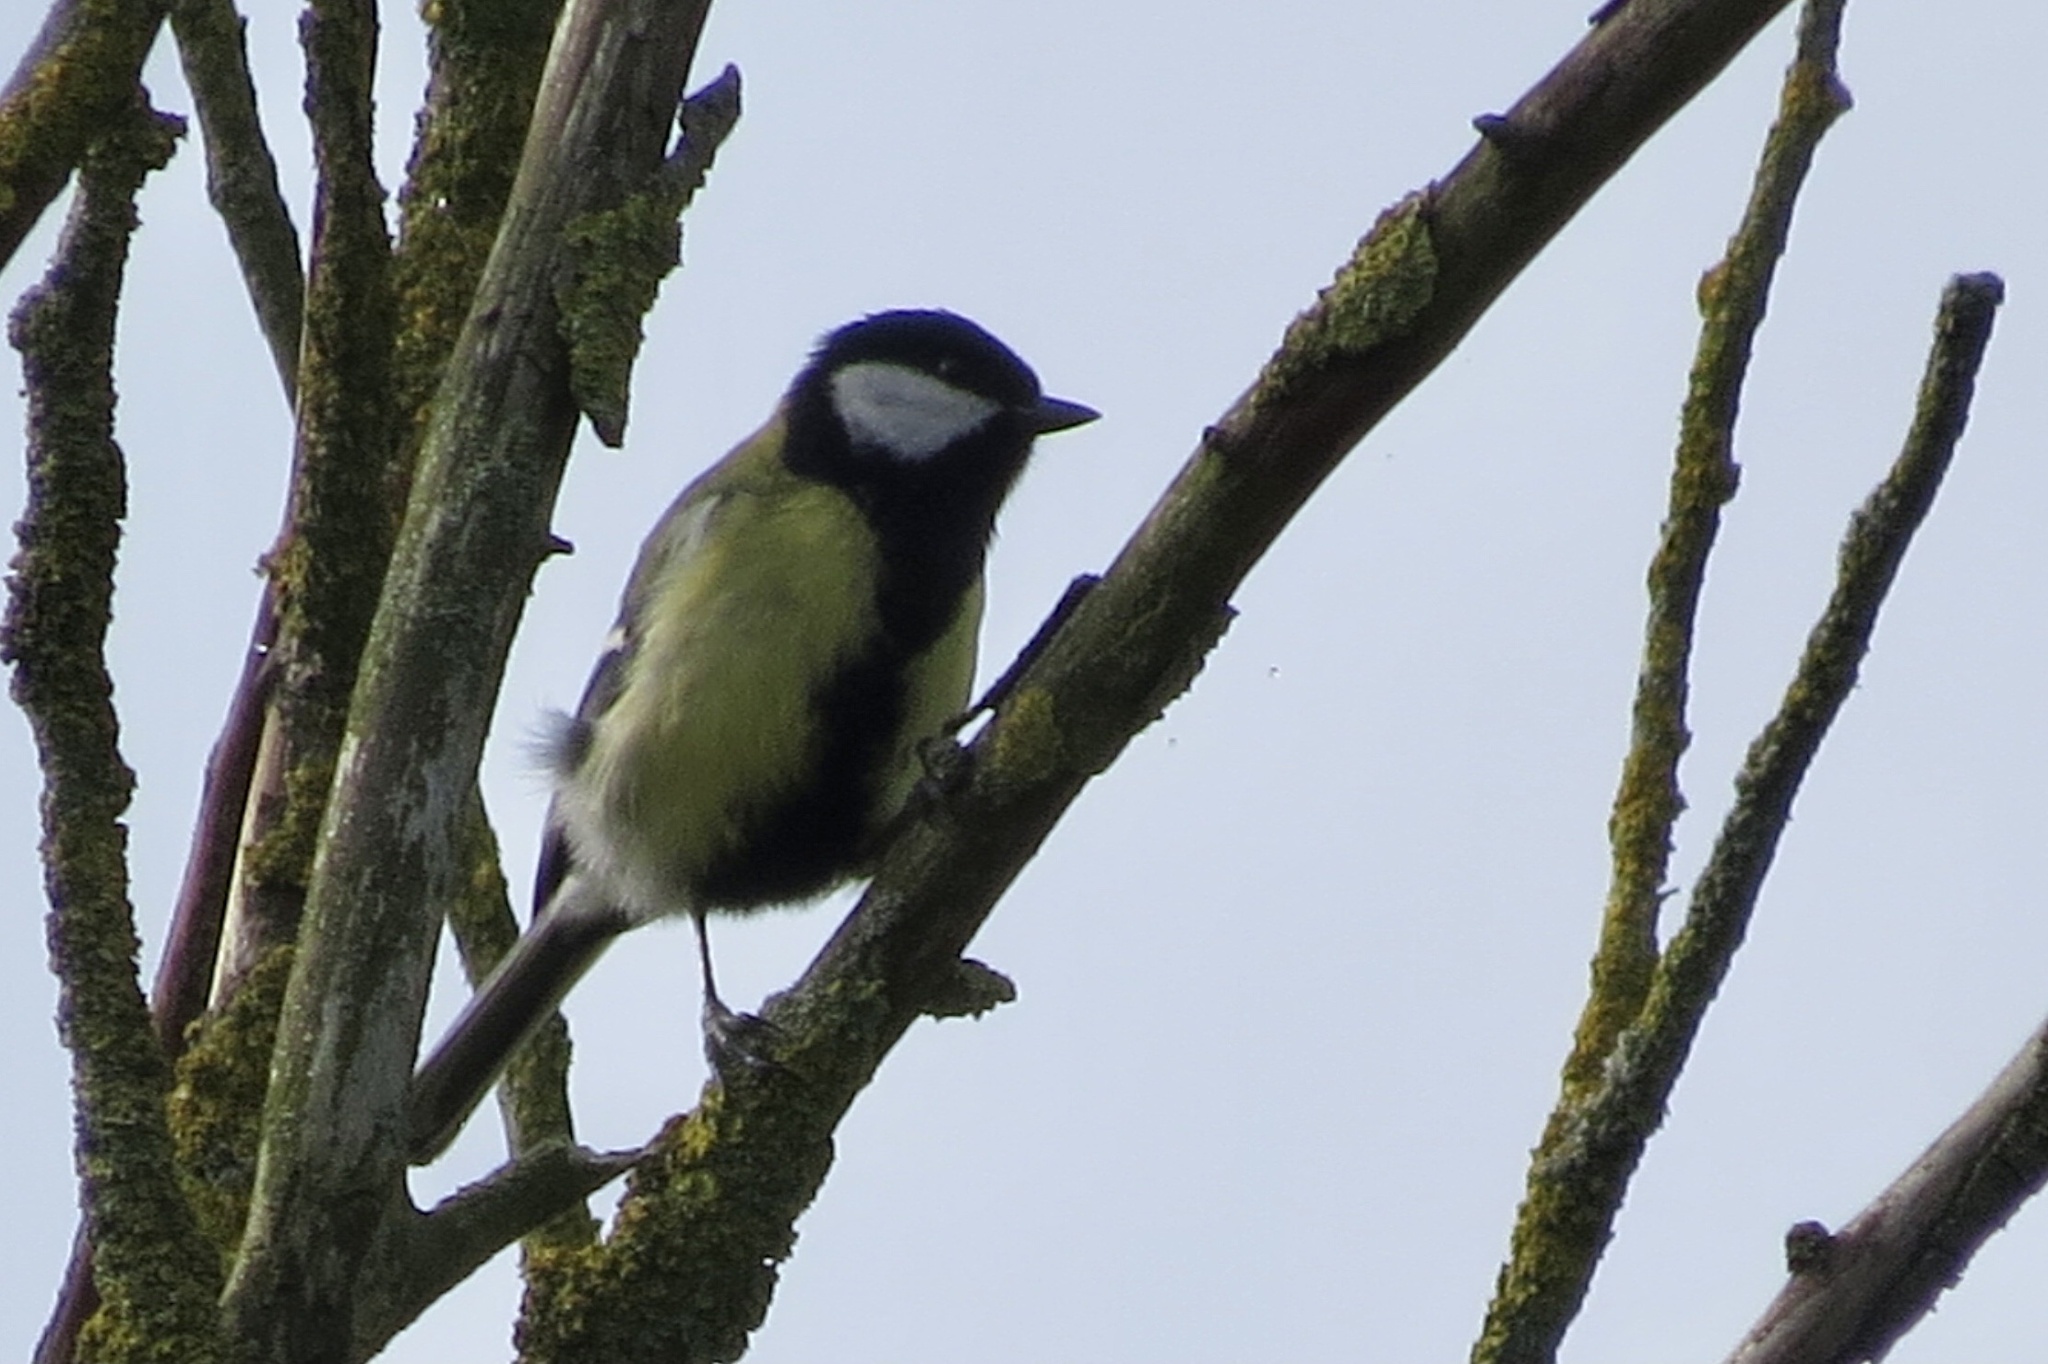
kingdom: Animalia
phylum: Chordata
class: Aves
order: Passeriformes
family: Paridae
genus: Parus
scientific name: Parus major
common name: Great tit
